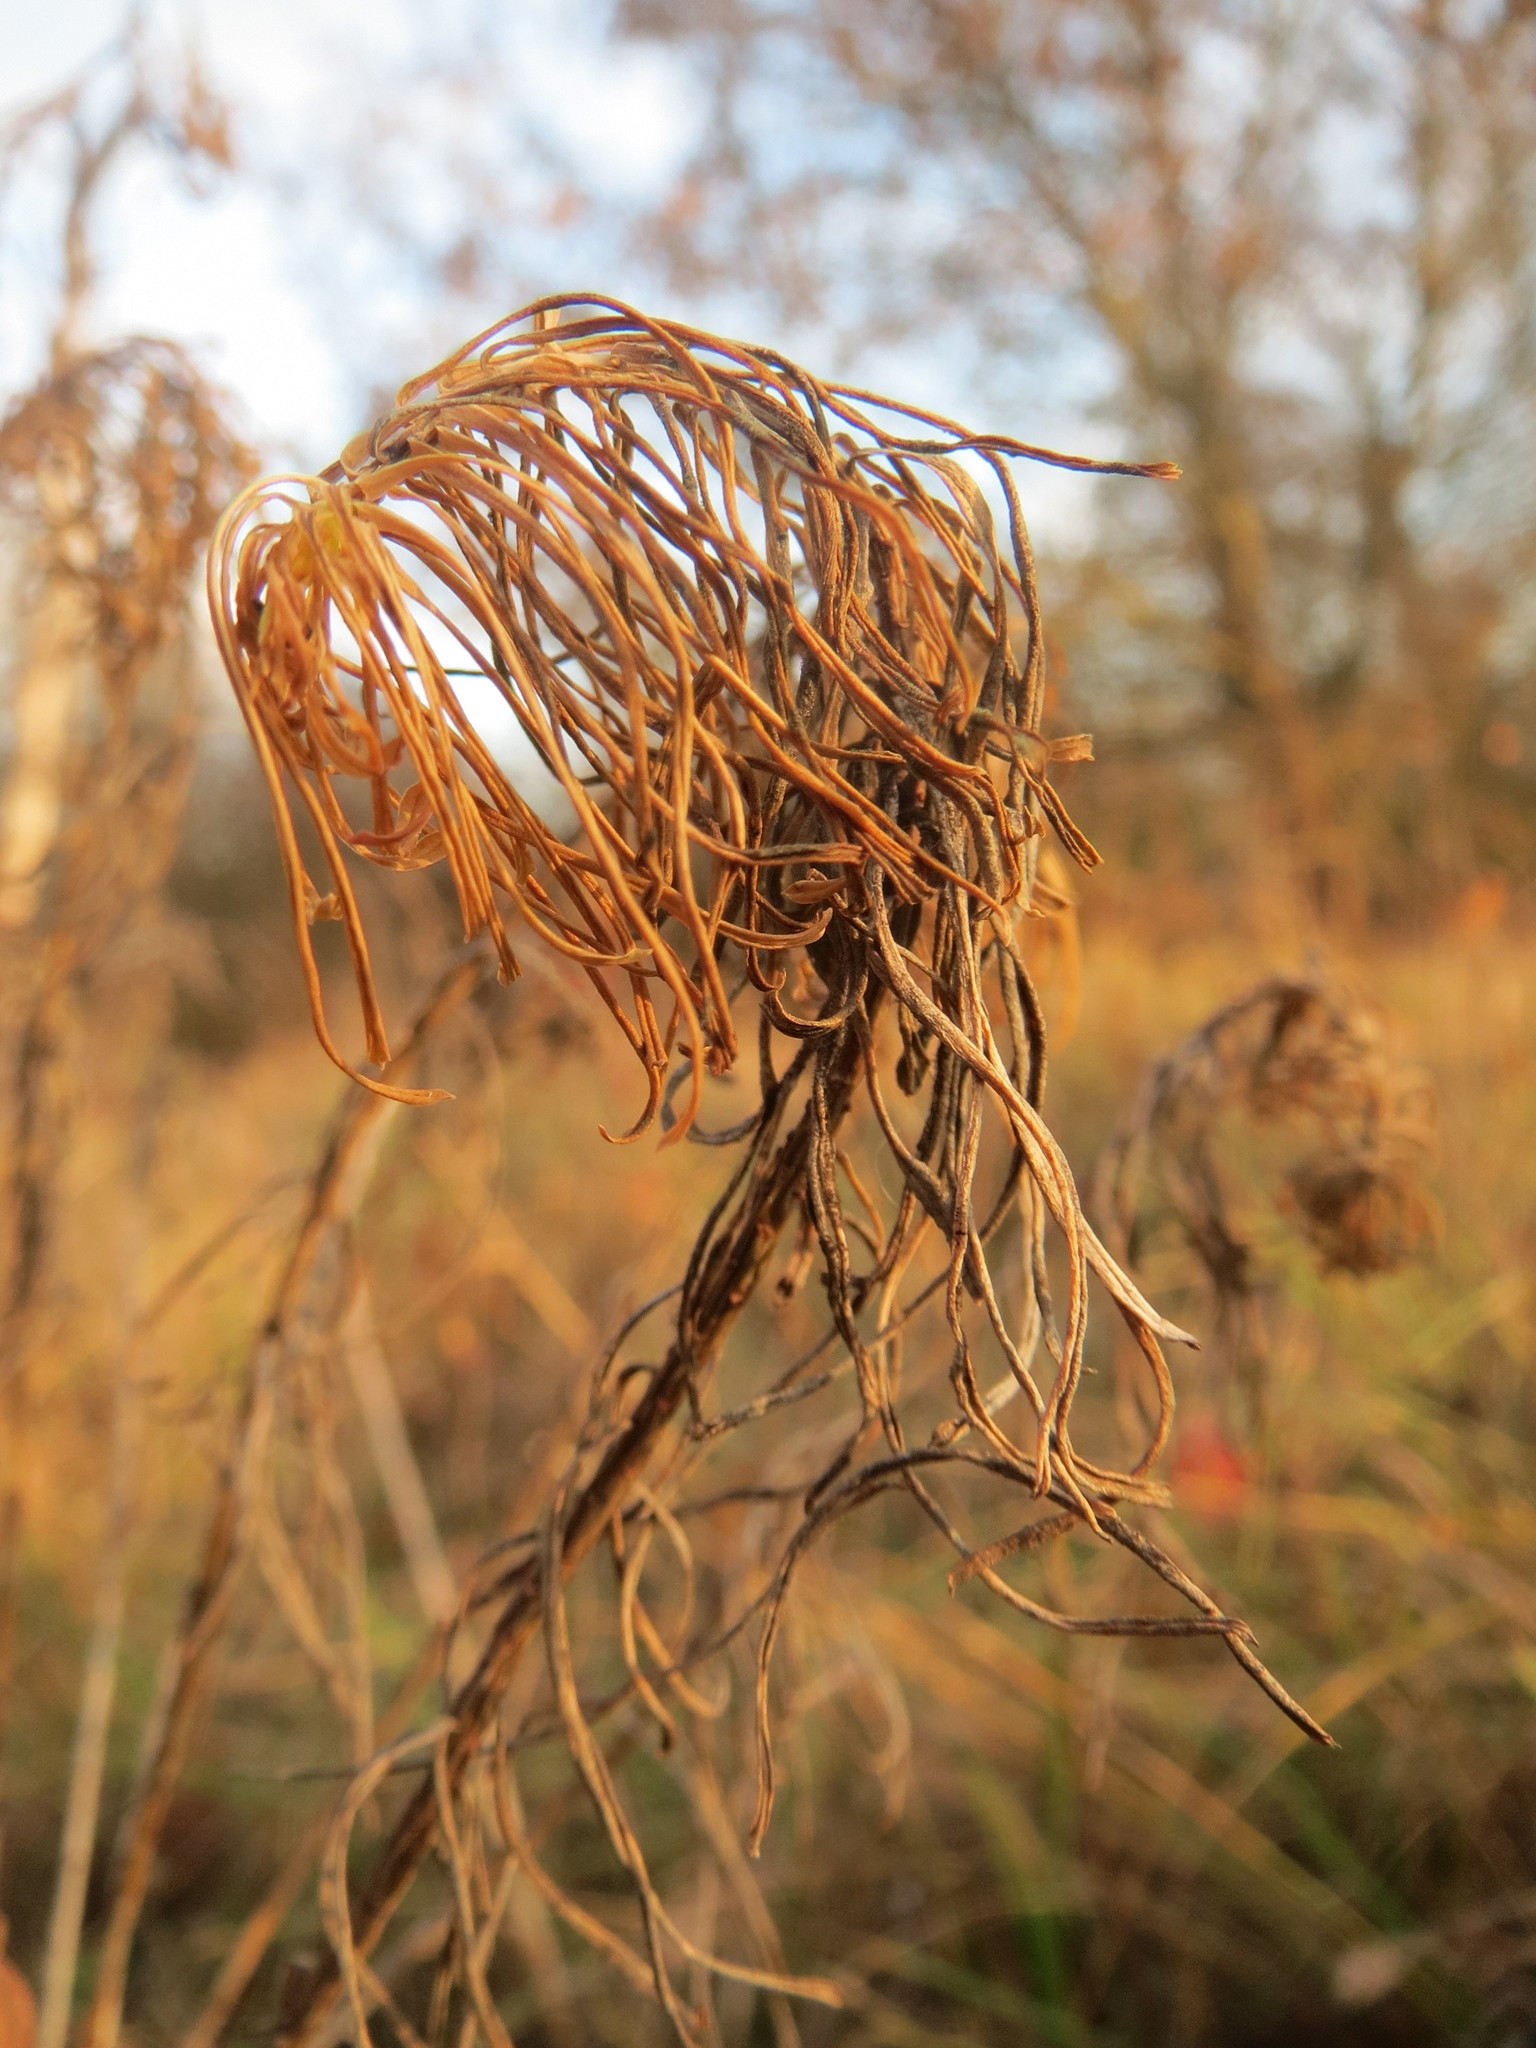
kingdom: Plantae
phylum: Tracheophyta
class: Magnoliopsida
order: Malpighiales
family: Euphorbiaceae
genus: Euphorbia
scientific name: Euphorbia cyparissias
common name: Cypress spurge
